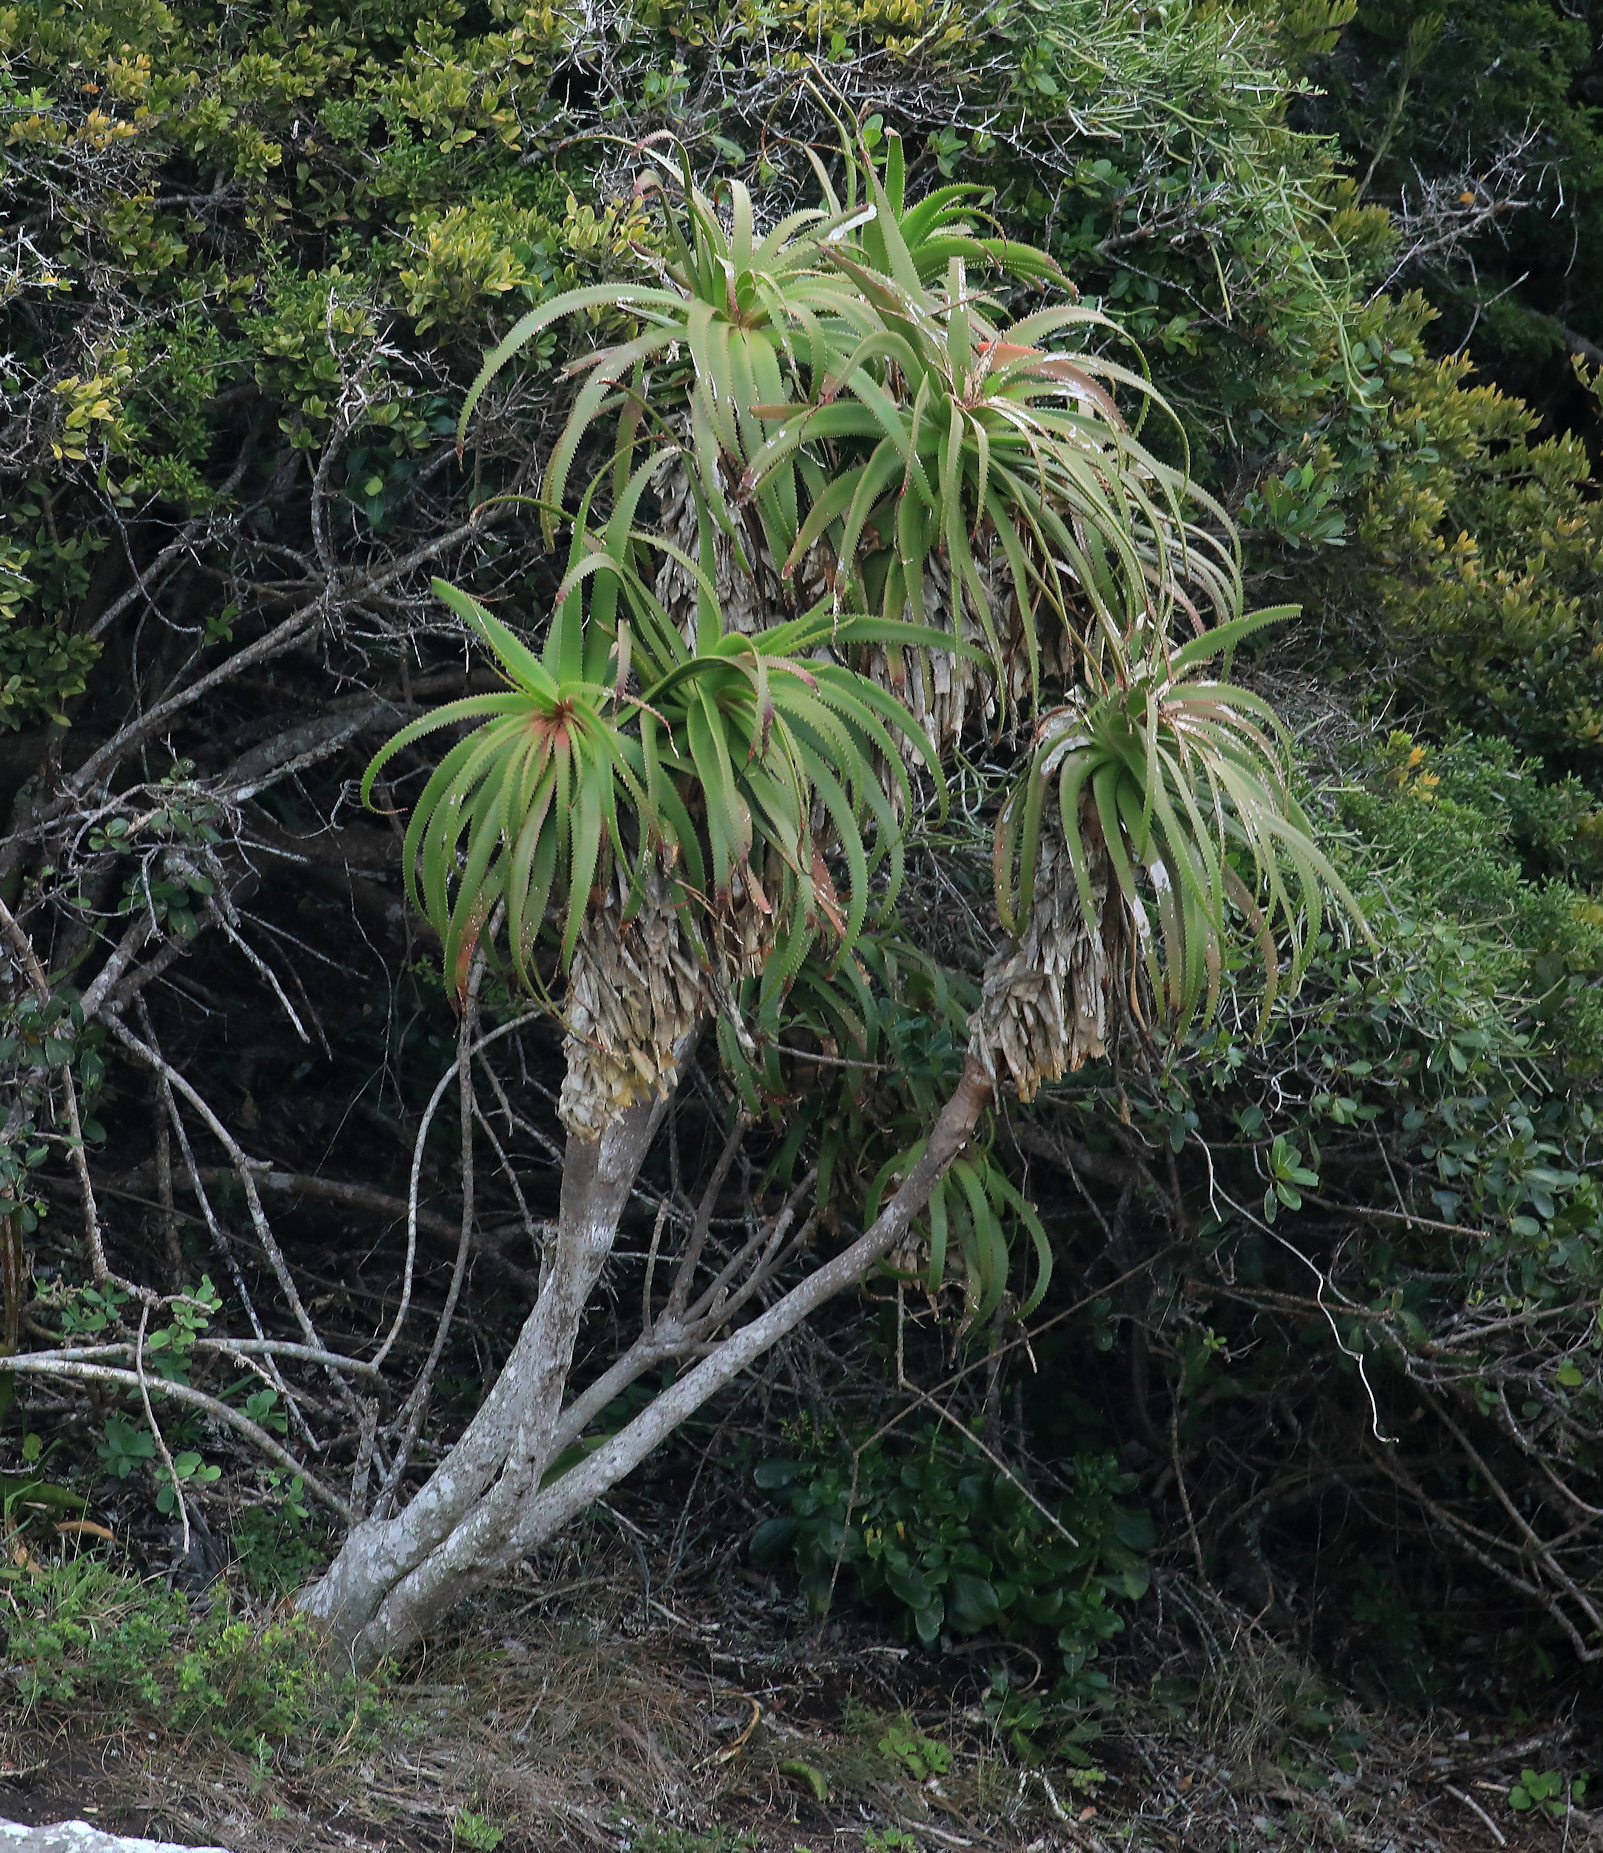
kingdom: Plantae
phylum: Tracheophyta
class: Liliopsida
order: Asparagales
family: Asphodelaceae
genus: Aloe
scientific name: Aloe pluridens
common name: French aloe
